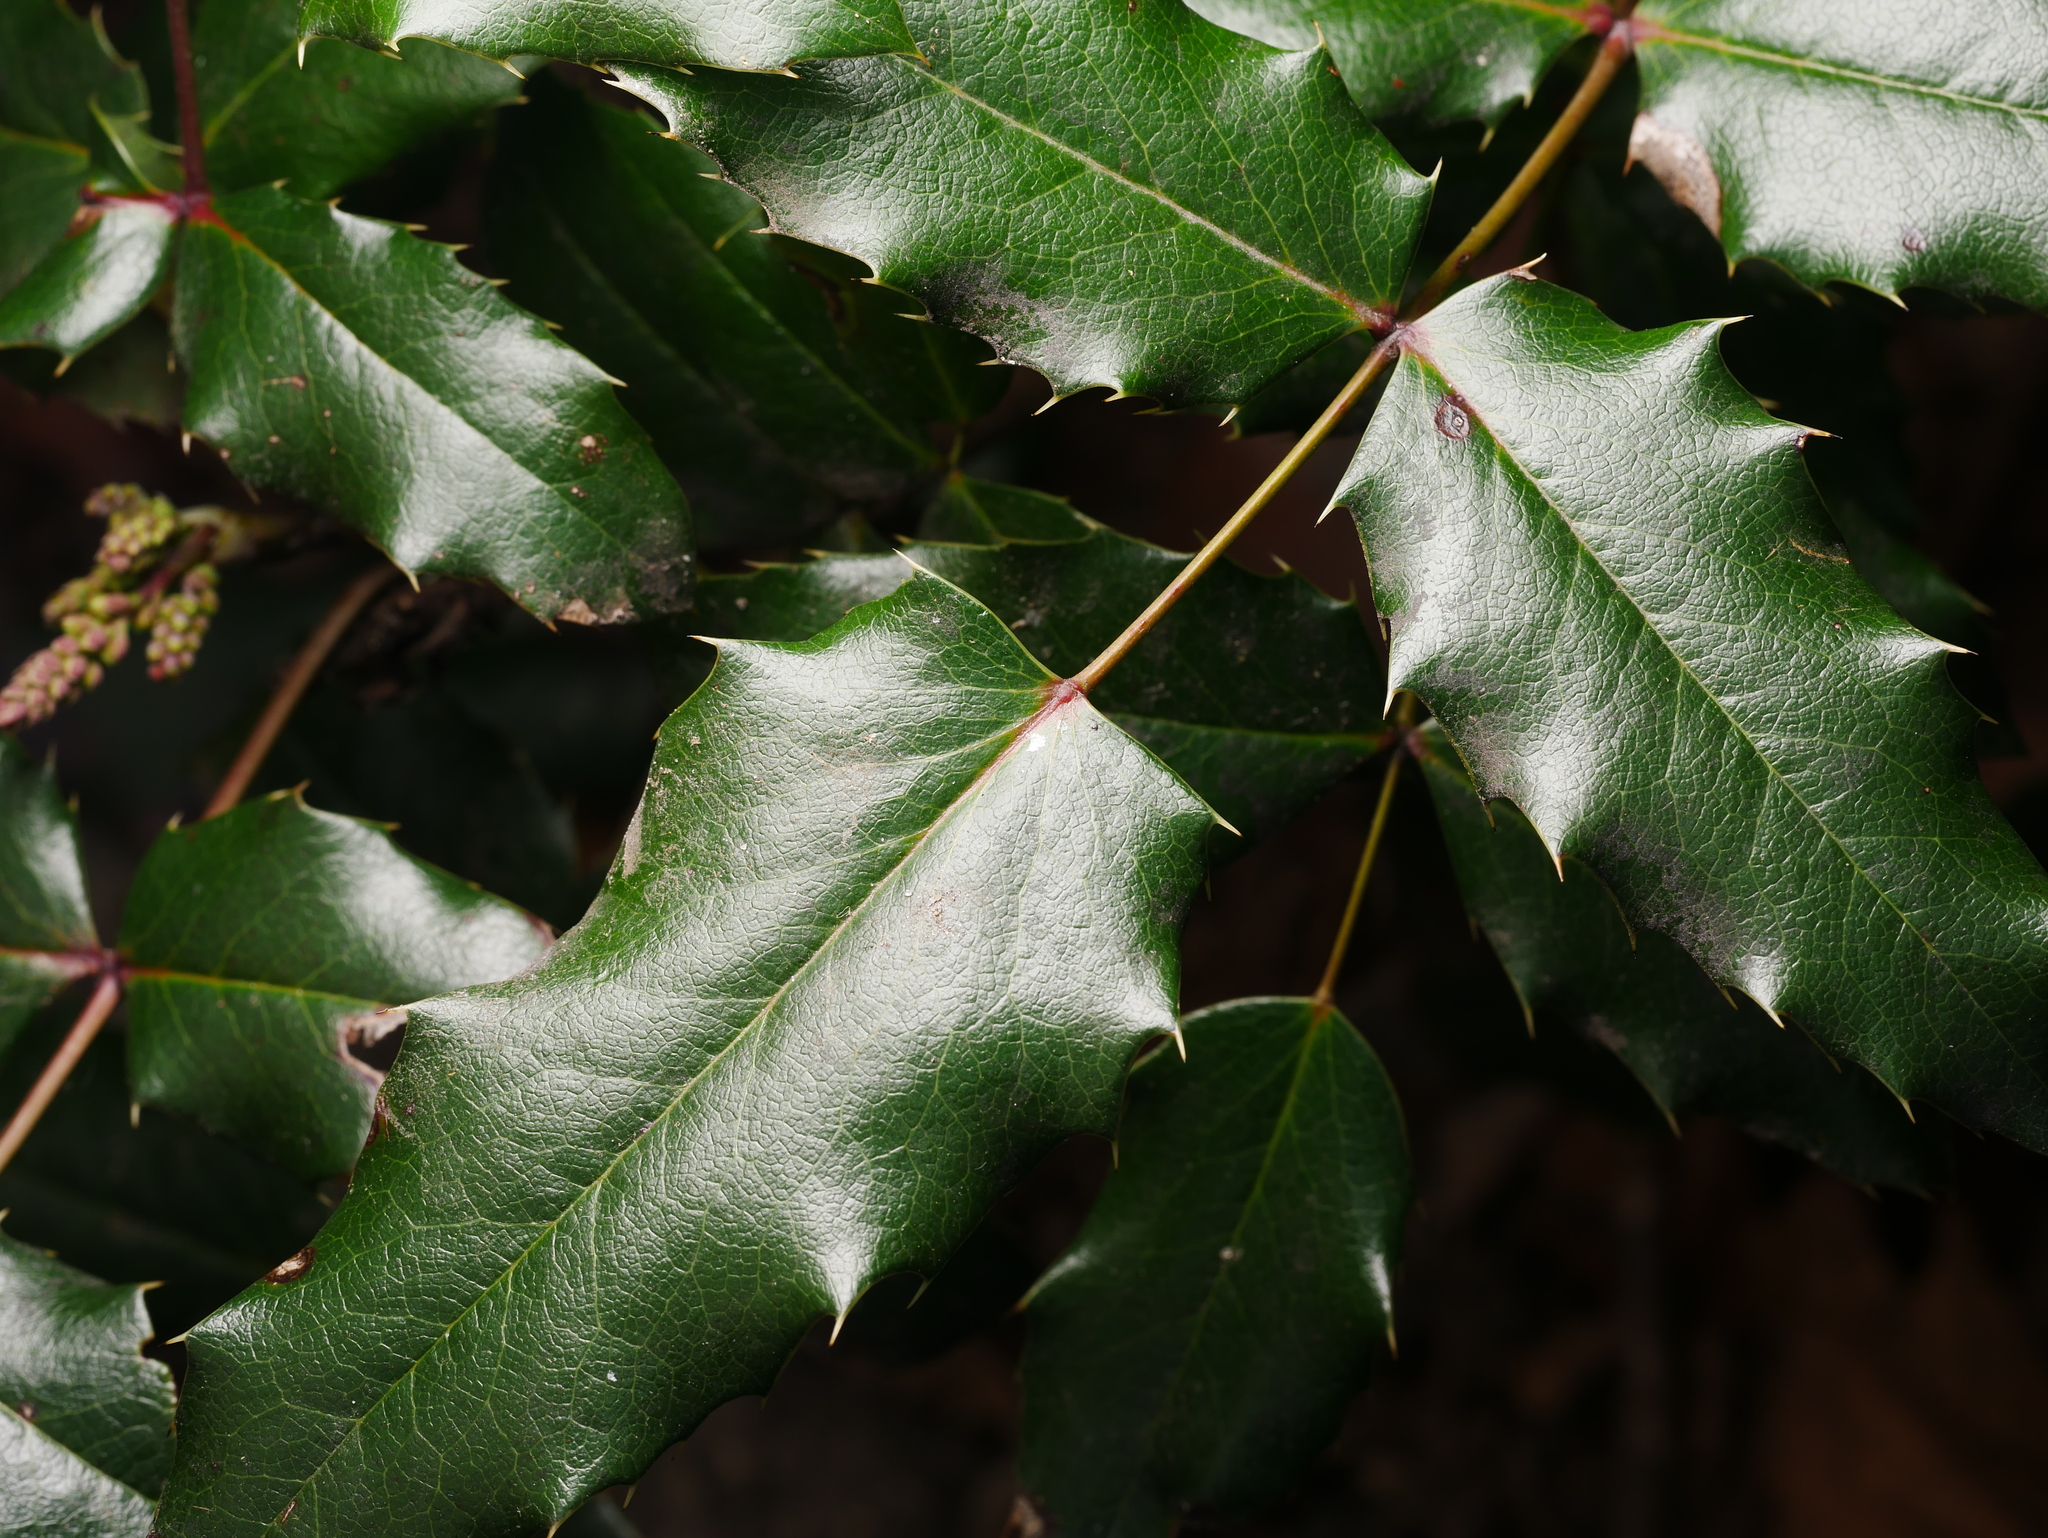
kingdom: Plantae
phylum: Tracheophyta
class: Magnoliopsida
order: Ranunculales
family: Berberidaceae
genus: Mahonia
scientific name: Mahonia aquifolium
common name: Oregon-grape
